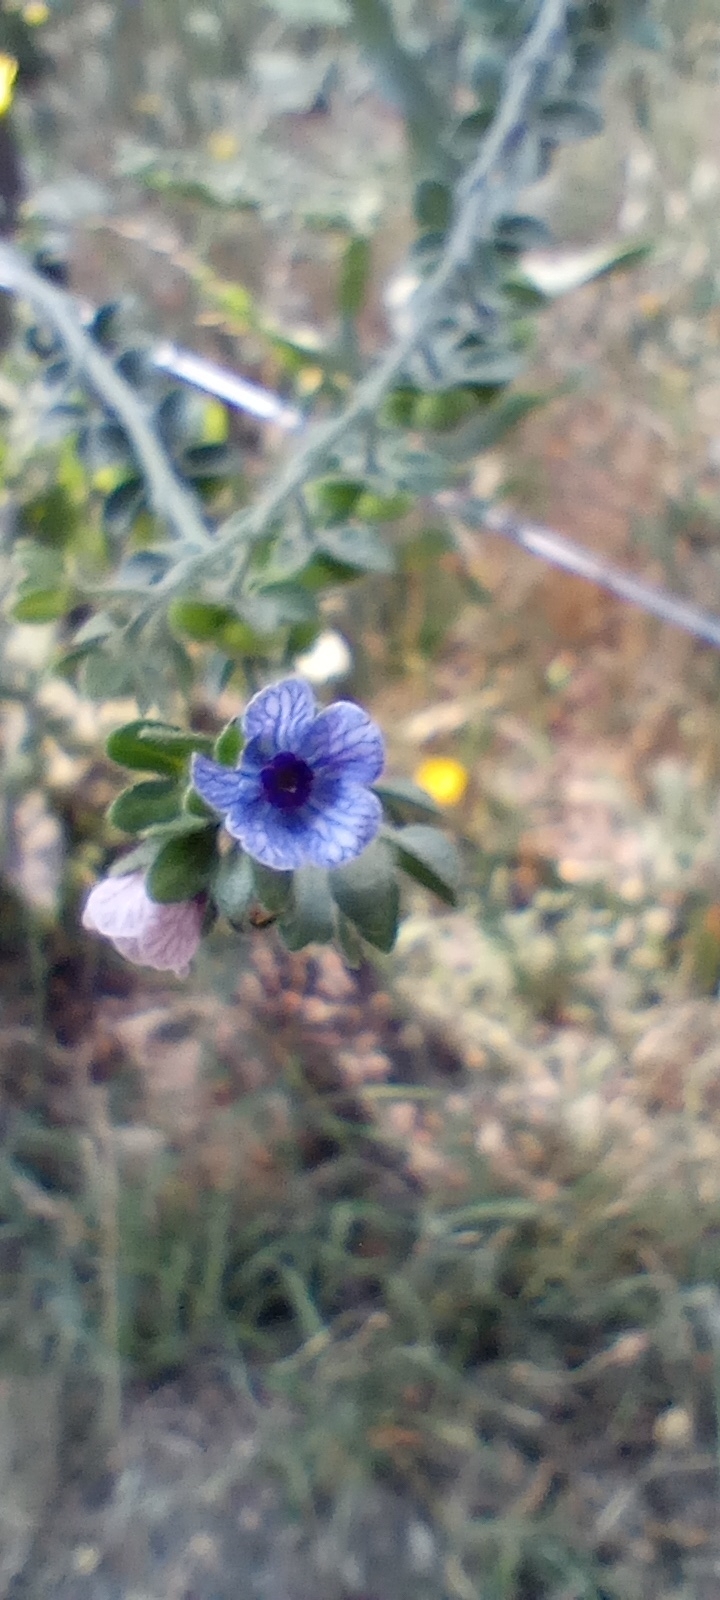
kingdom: Plantae
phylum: Tracheophyta
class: Magnoliopsida
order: Boraginales
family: Boraginaceae
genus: Cynoglossum
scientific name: Cynoglossum creticum
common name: Blue hound's tongue
